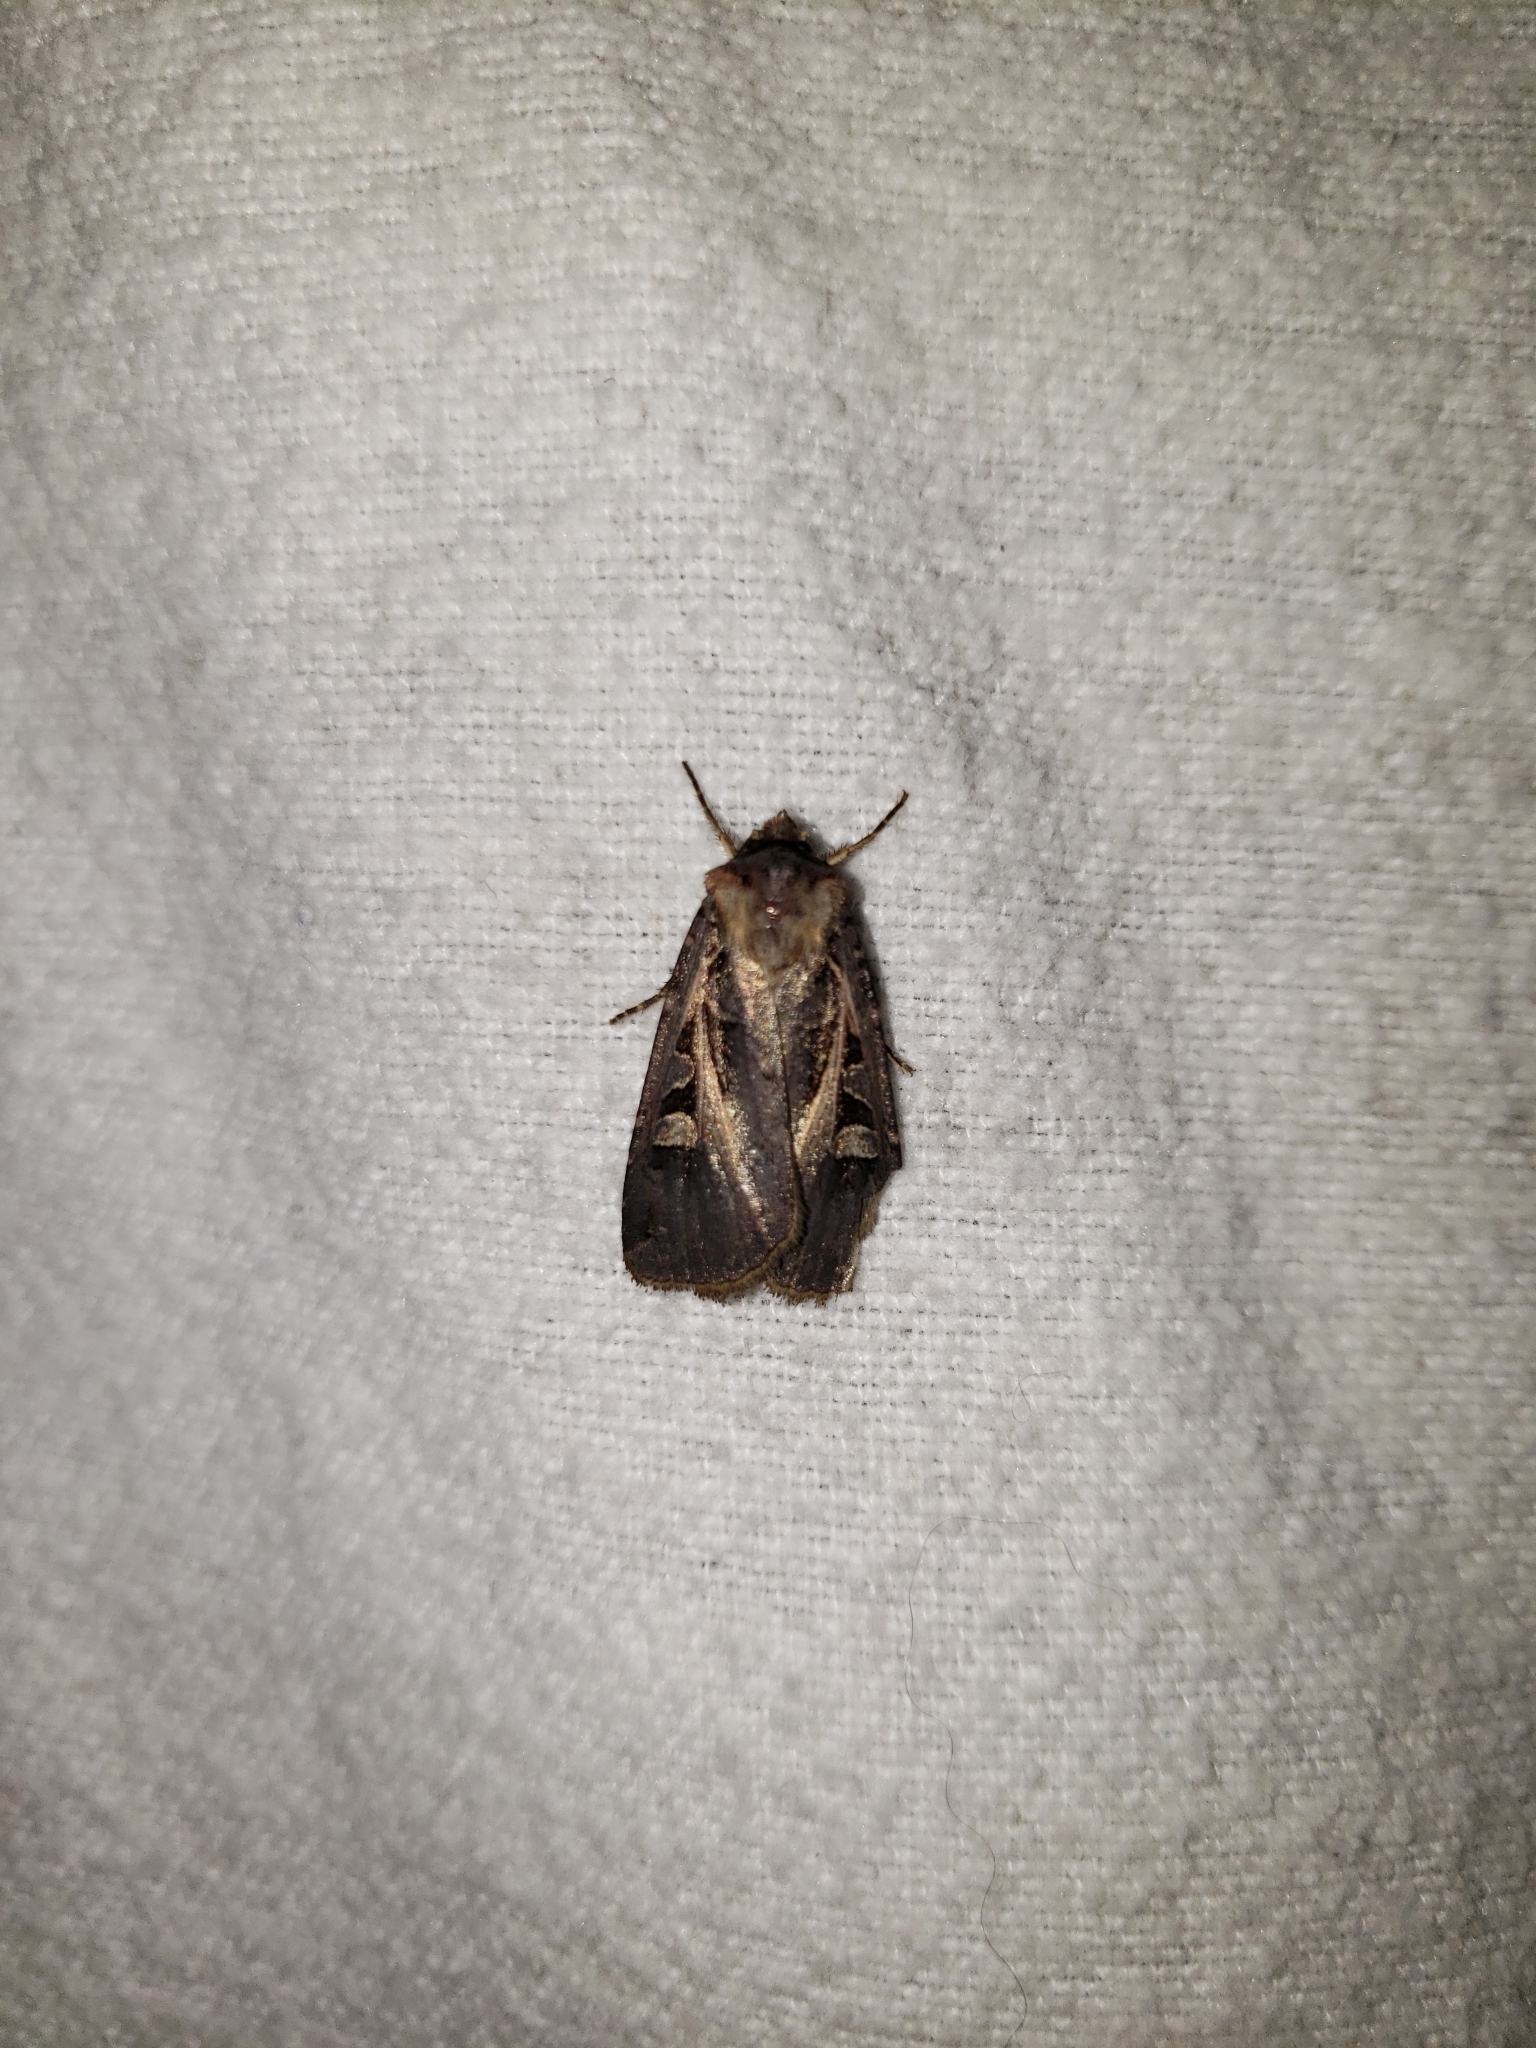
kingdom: Animalia
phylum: Arthropoda
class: Insecta
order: Lepidoptera
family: Noctuidae
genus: Feltia
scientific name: Feltia herilis
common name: Master's dart
